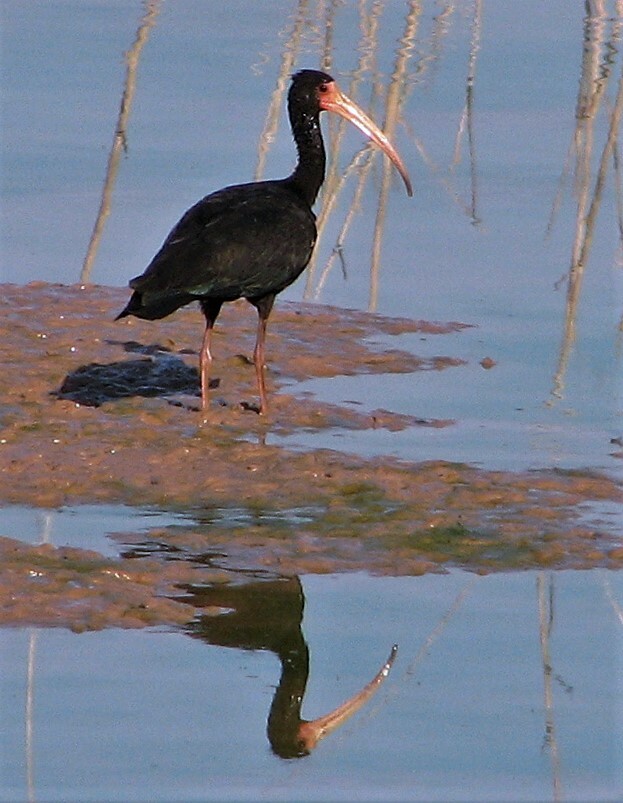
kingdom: Animalia
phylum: Chordata
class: Aves
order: Pelecaniformes
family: Threskiornithidae
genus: Phimosus
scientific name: Phimosus infuscatus
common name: Bare-faced ibis
